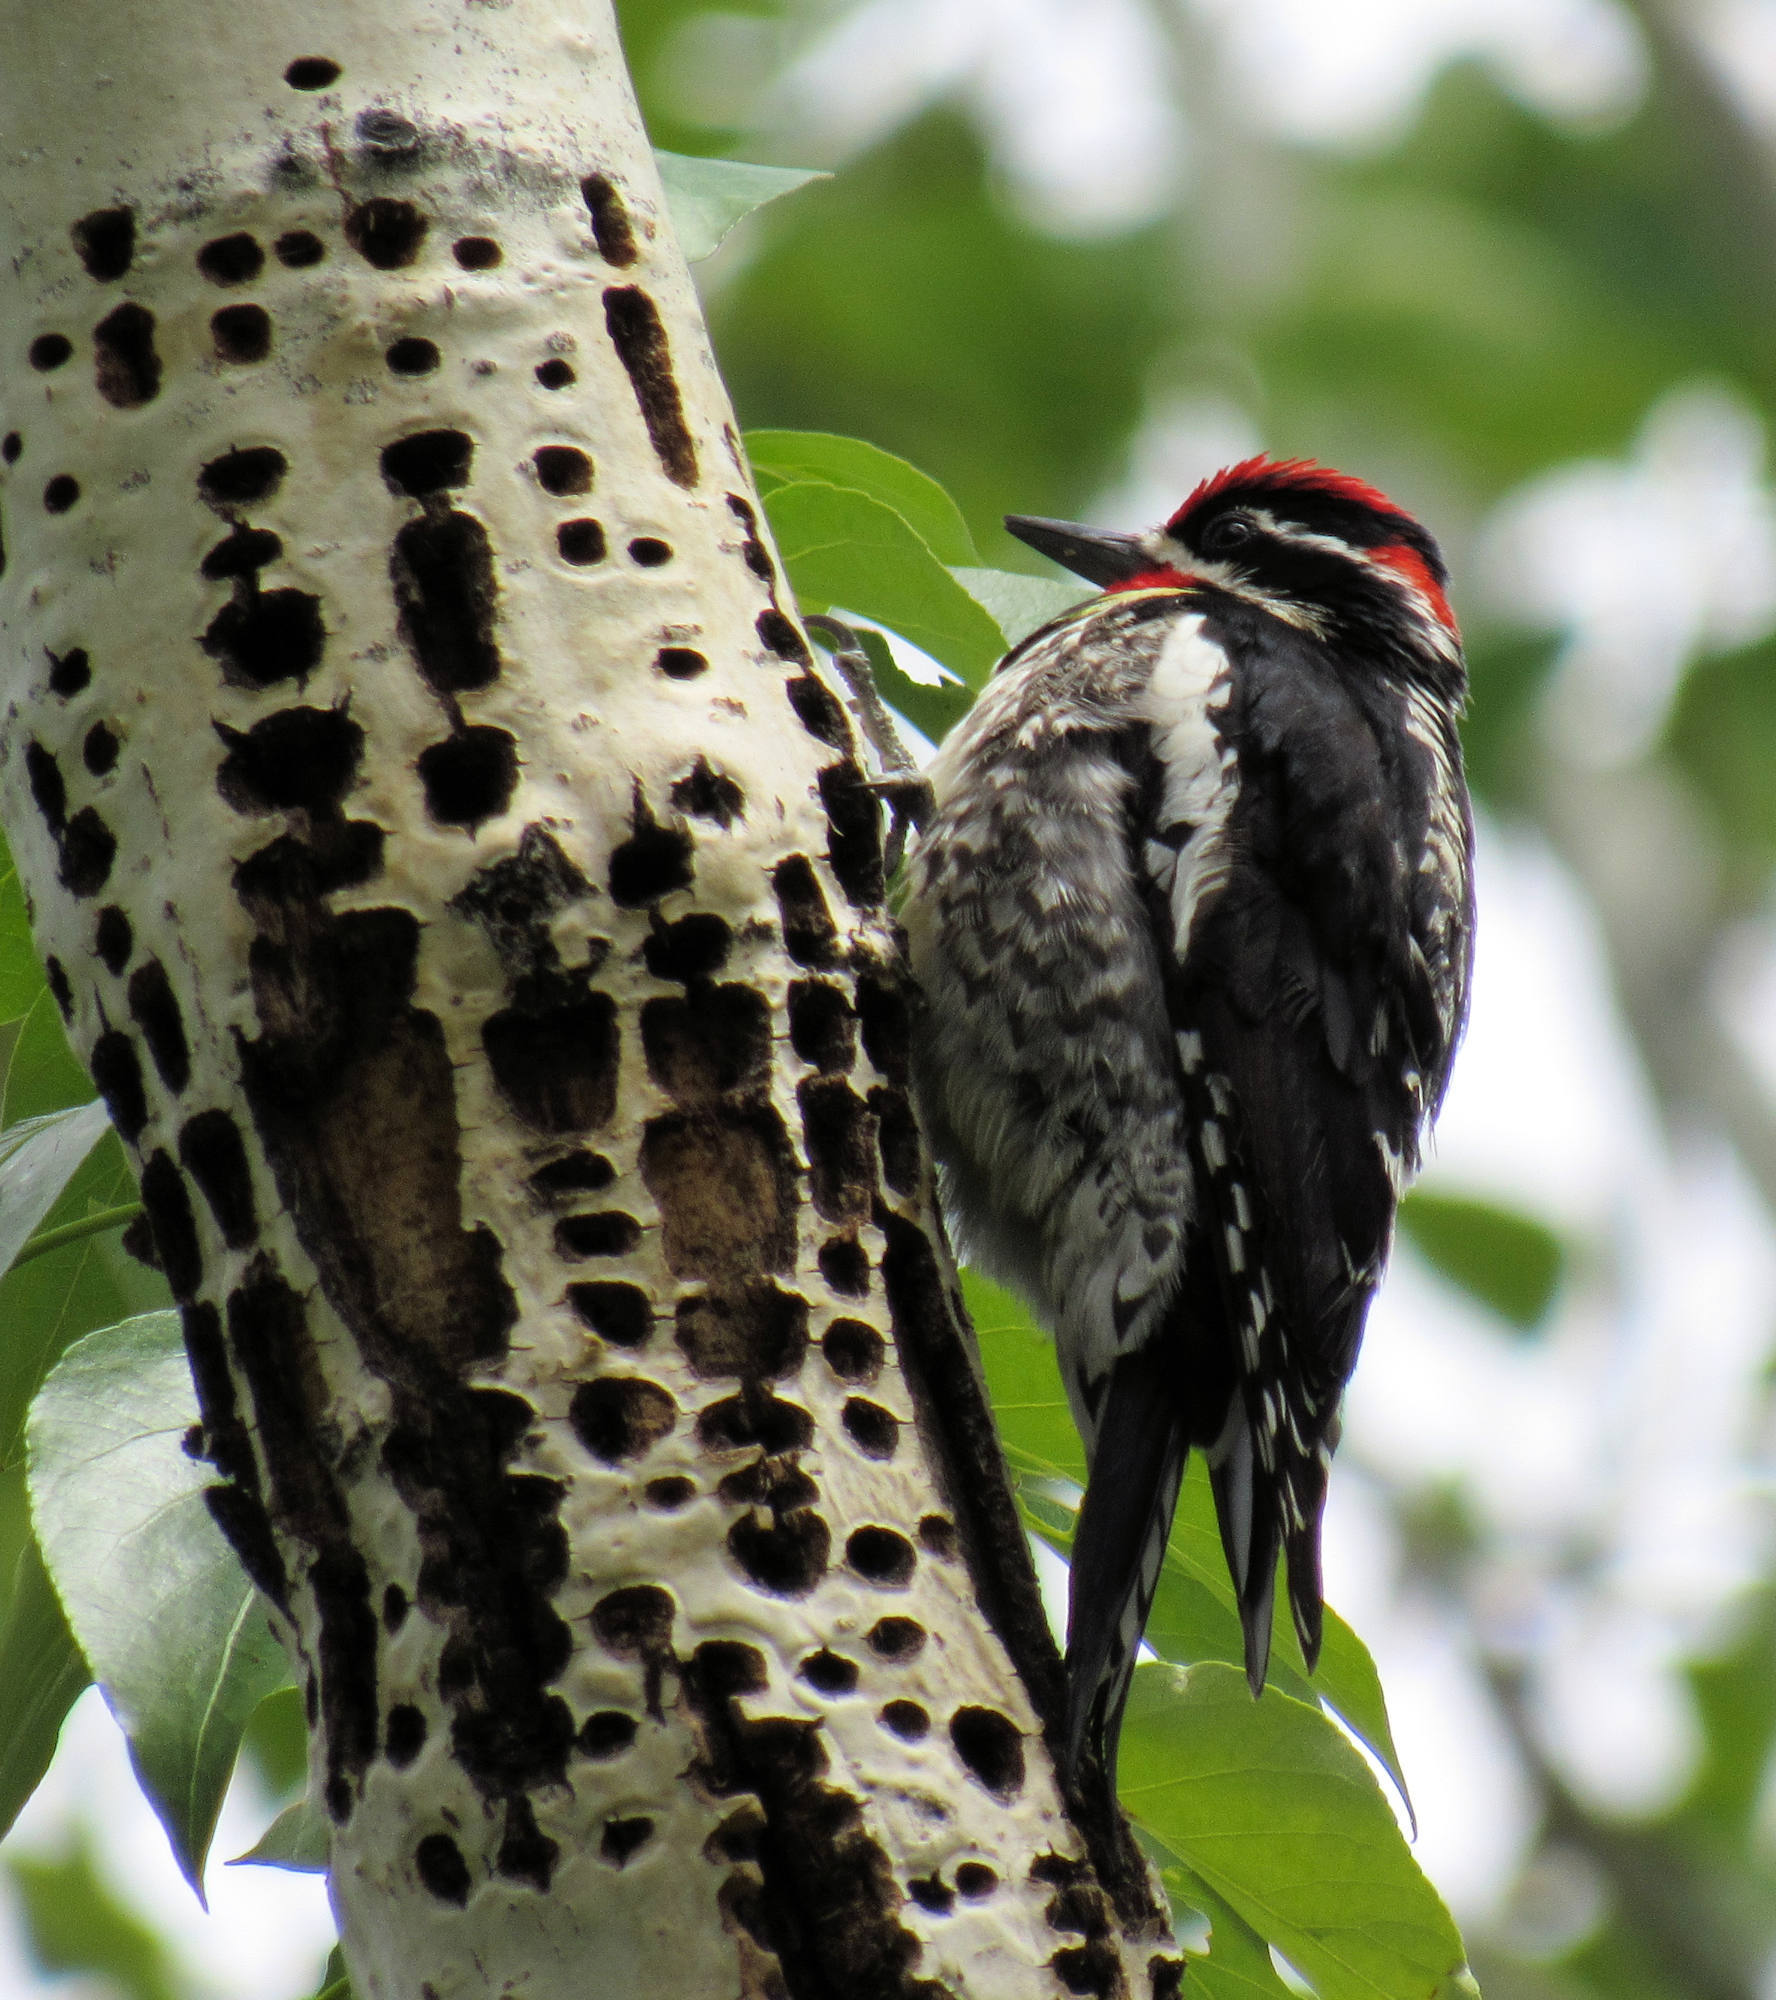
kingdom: Animalia
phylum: Chordata
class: Aves
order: Piciformes
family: Picidae
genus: Sphyrapicus
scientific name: Sphyrapicus nuchalis
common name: Red-naped sapsucker
